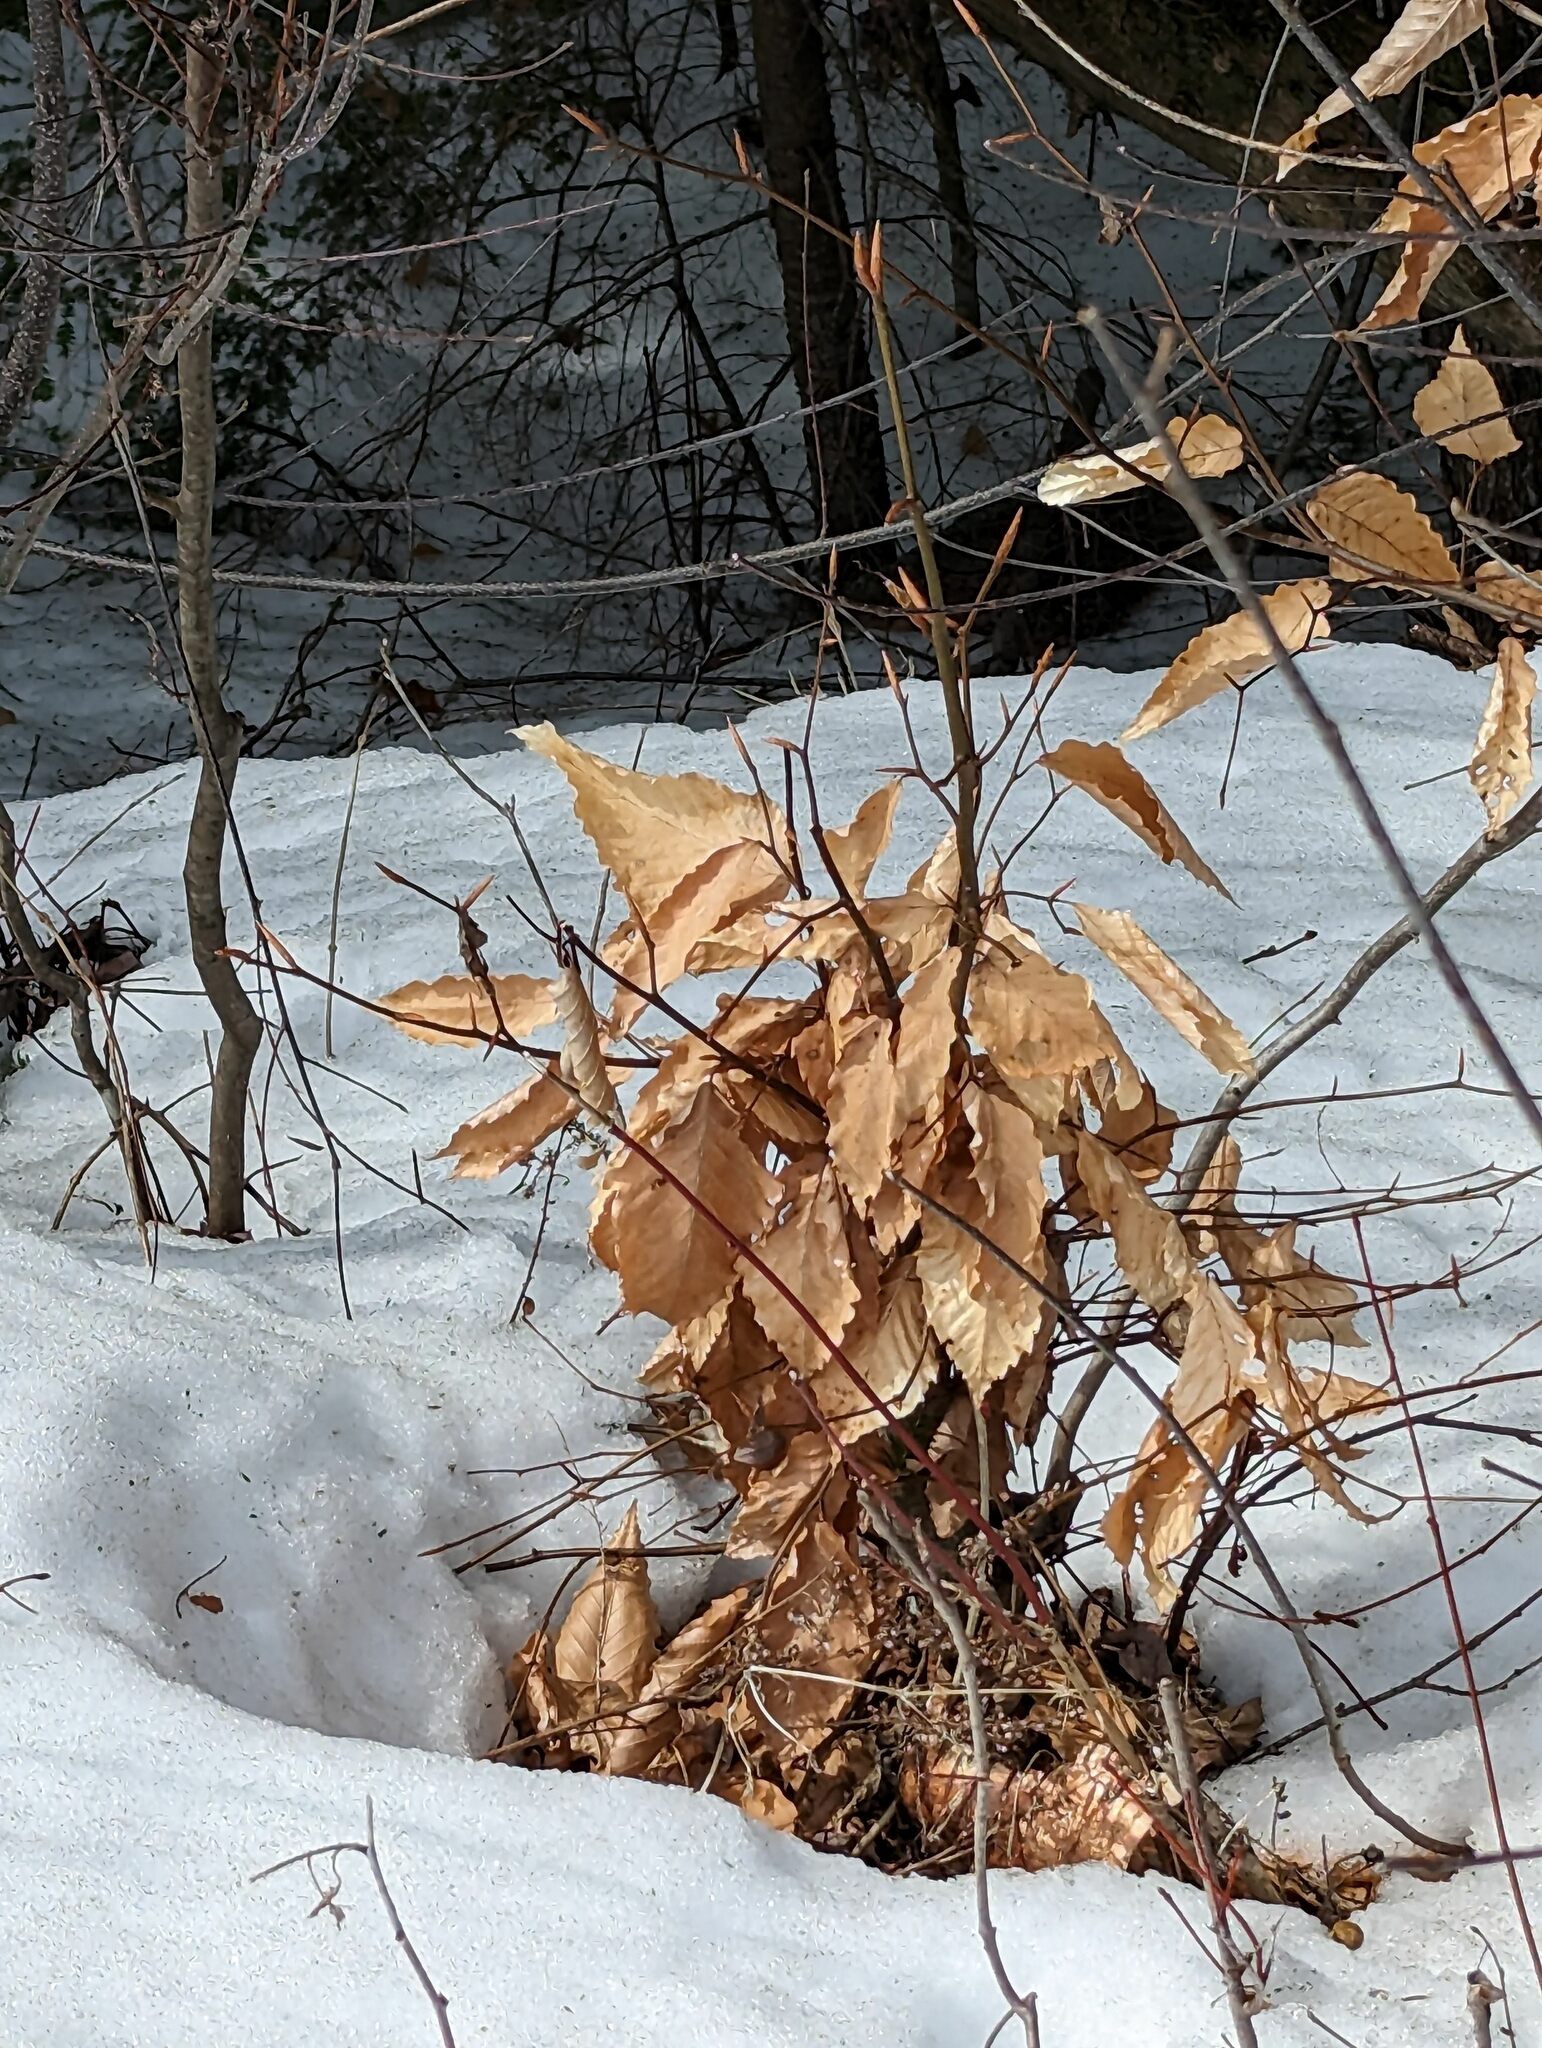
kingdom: Plantae
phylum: Tracheophyta
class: Magnoliopsida
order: Fagales
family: Fagaceae
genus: Fagus
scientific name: Fagus grandifolia
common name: American beech
